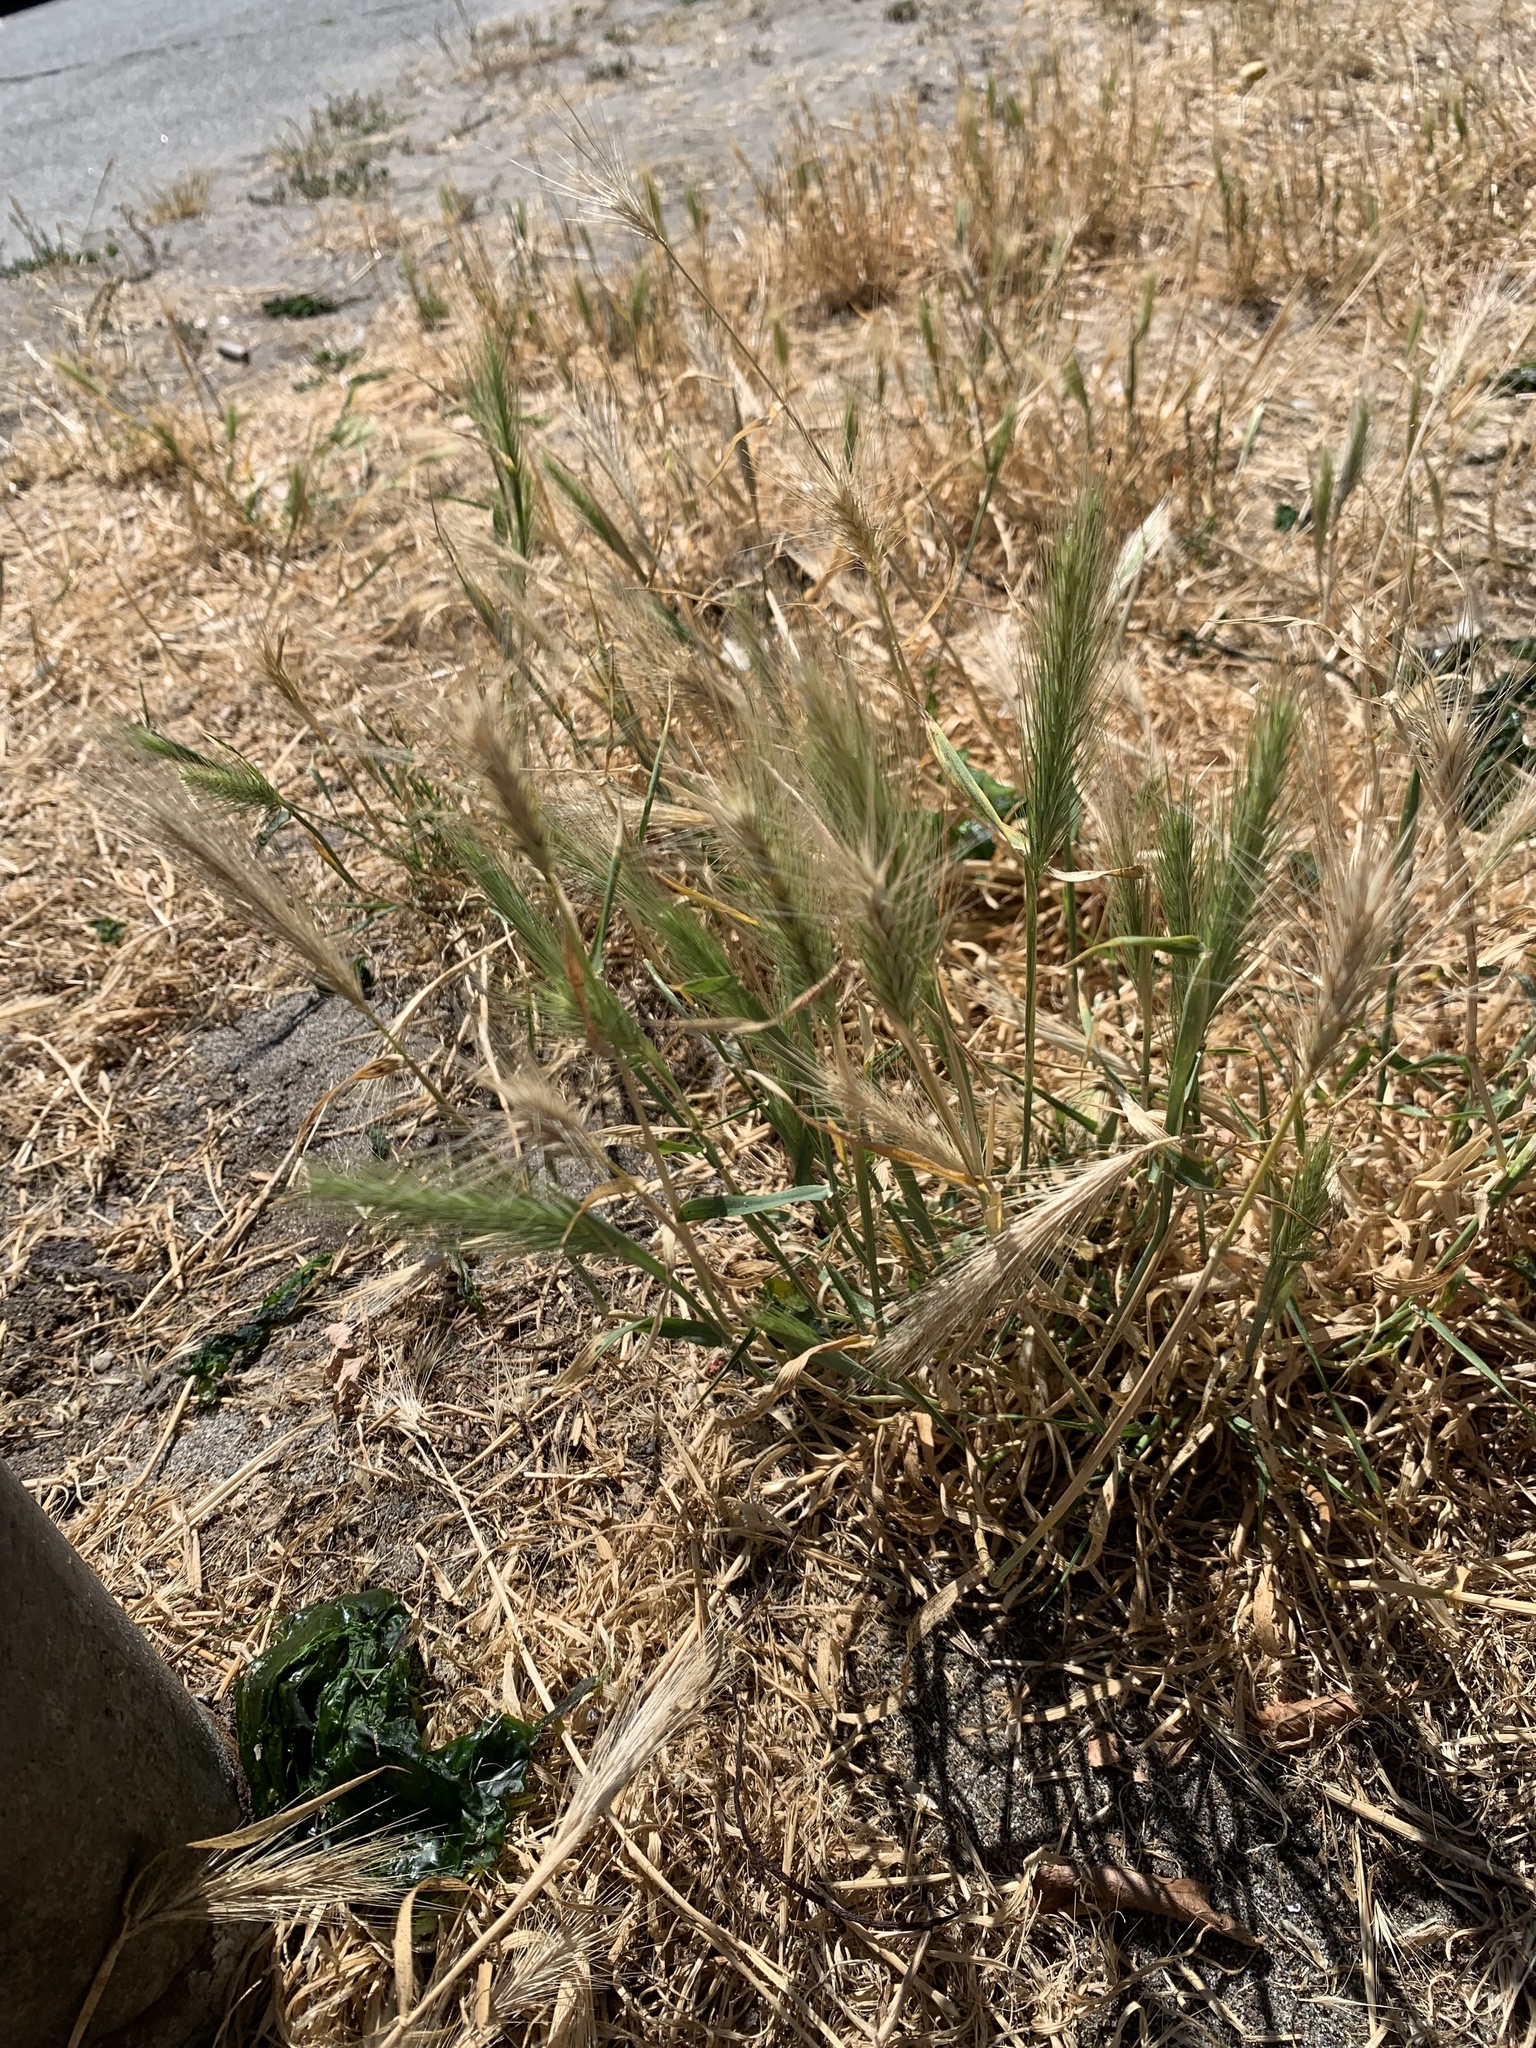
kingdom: Plantae
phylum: Tracheophyta
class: Liliopsida
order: Poales
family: Poaceae
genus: Hordeum
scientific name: Hordeum murinum
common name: Wall barley
